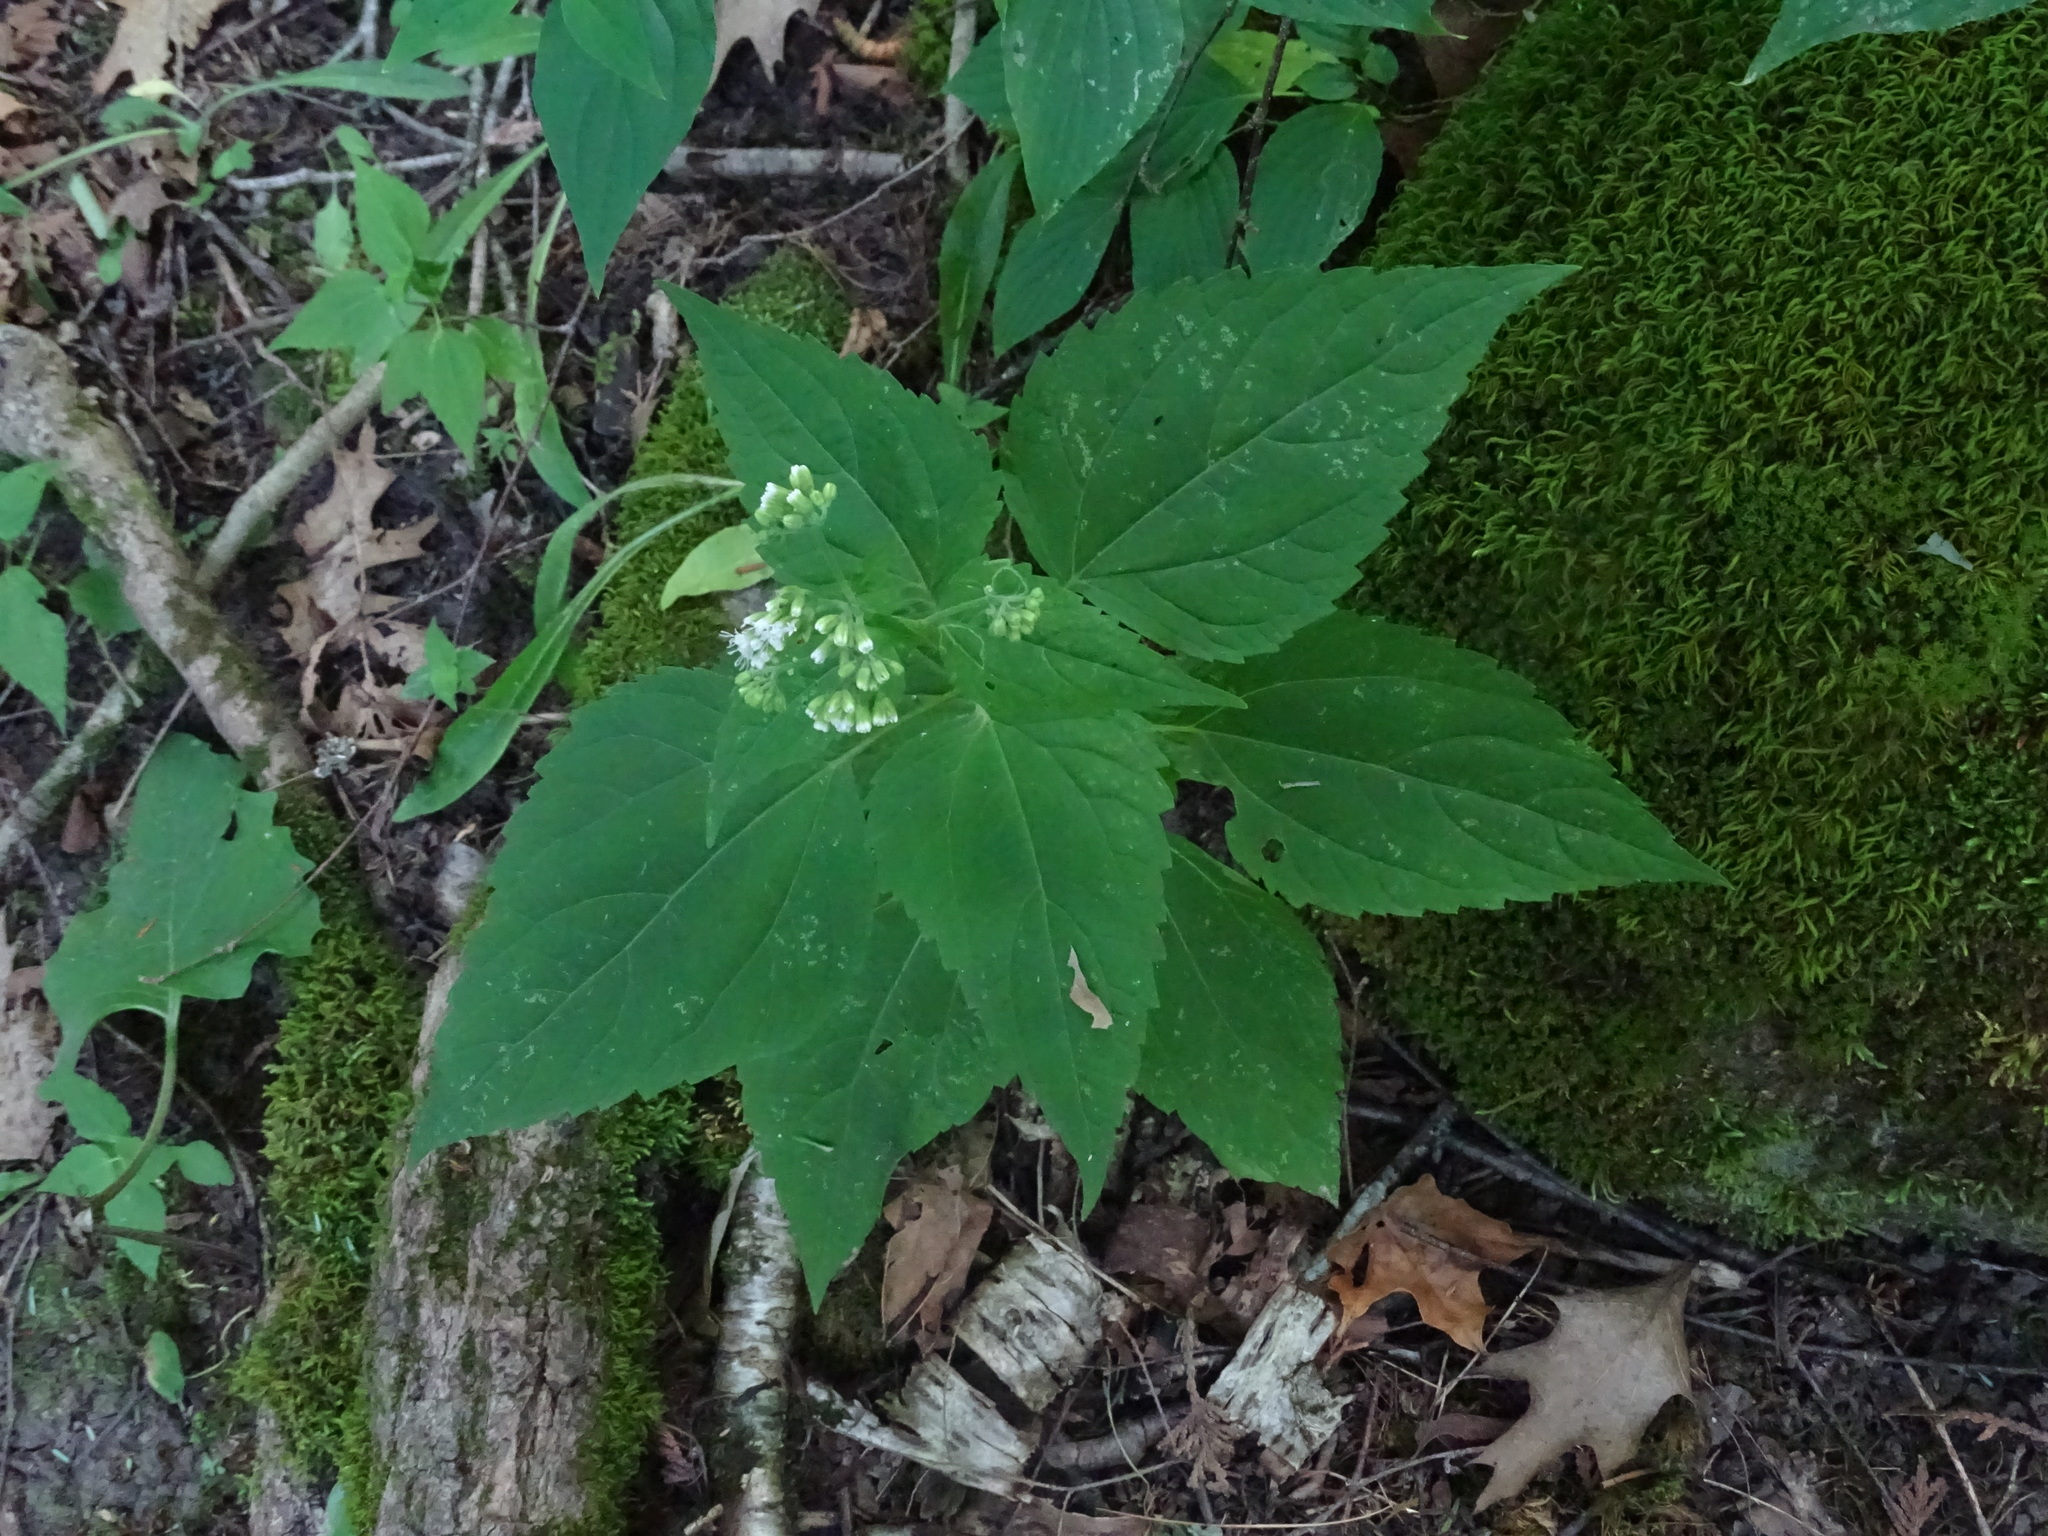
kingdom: Plantae
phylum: Tracheophyta
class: Magnoliopsida
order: Asterales
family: Asteraceae
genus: Ageratina
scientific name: Ageratina altissima
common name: White snakeroot
